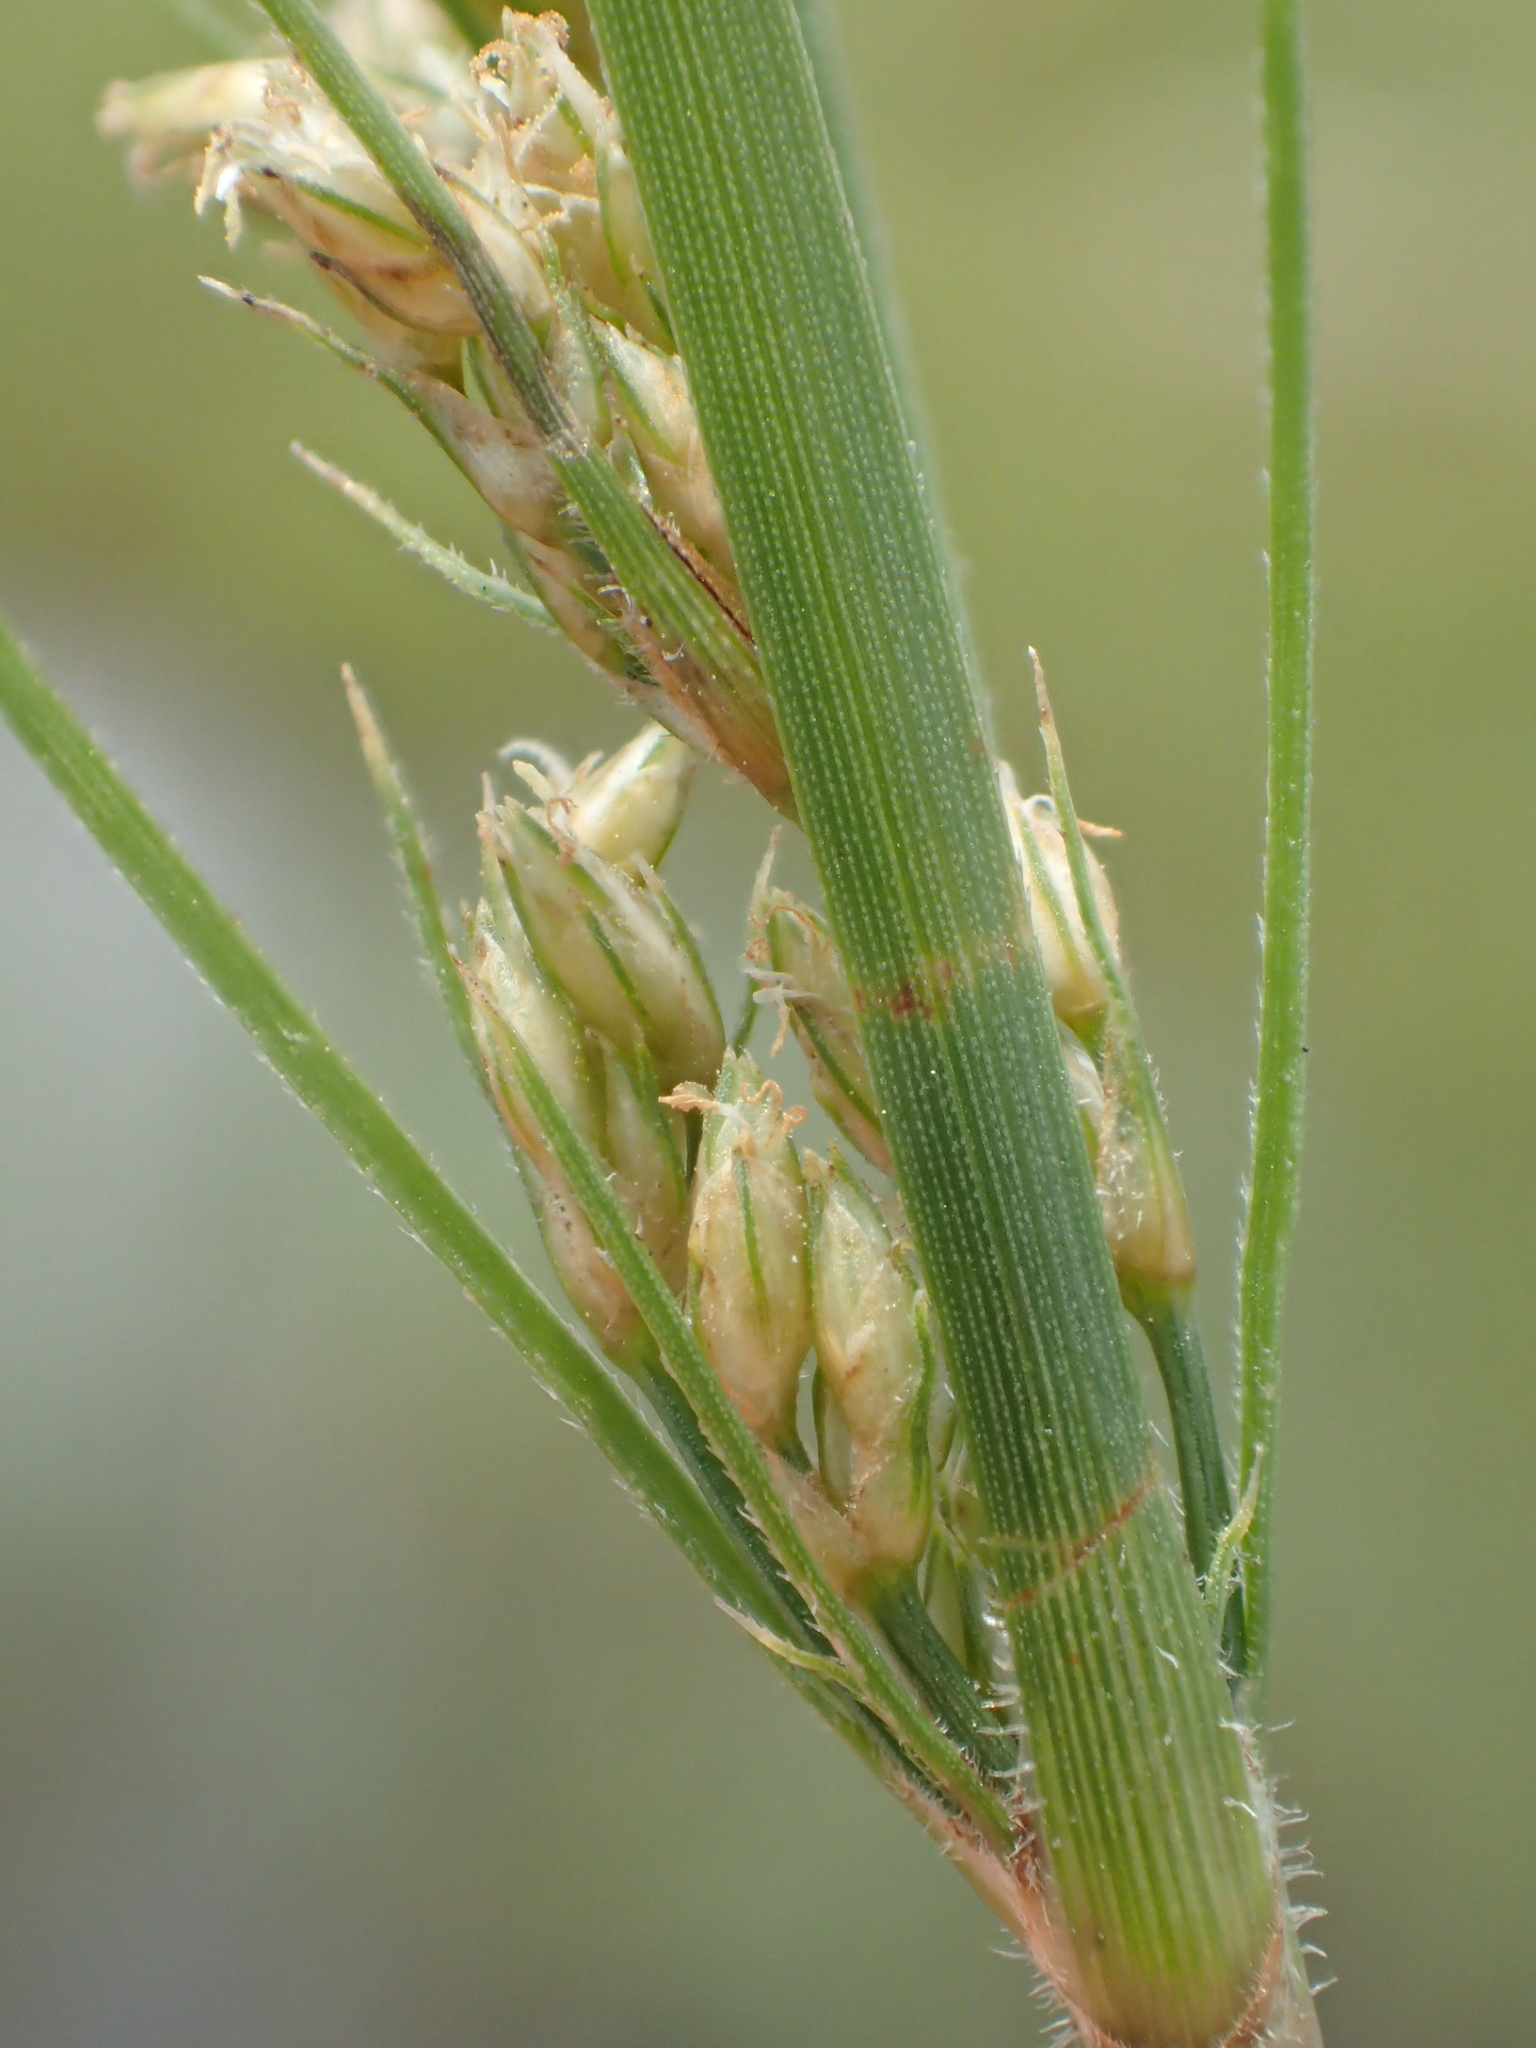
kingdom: Plantae
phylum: Tracheophyta
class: Liliopsida
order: Poales
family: Cyperaceae
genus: Fimbristylis
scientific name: Fimbristylis dichotoma
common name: Forked fimbry
